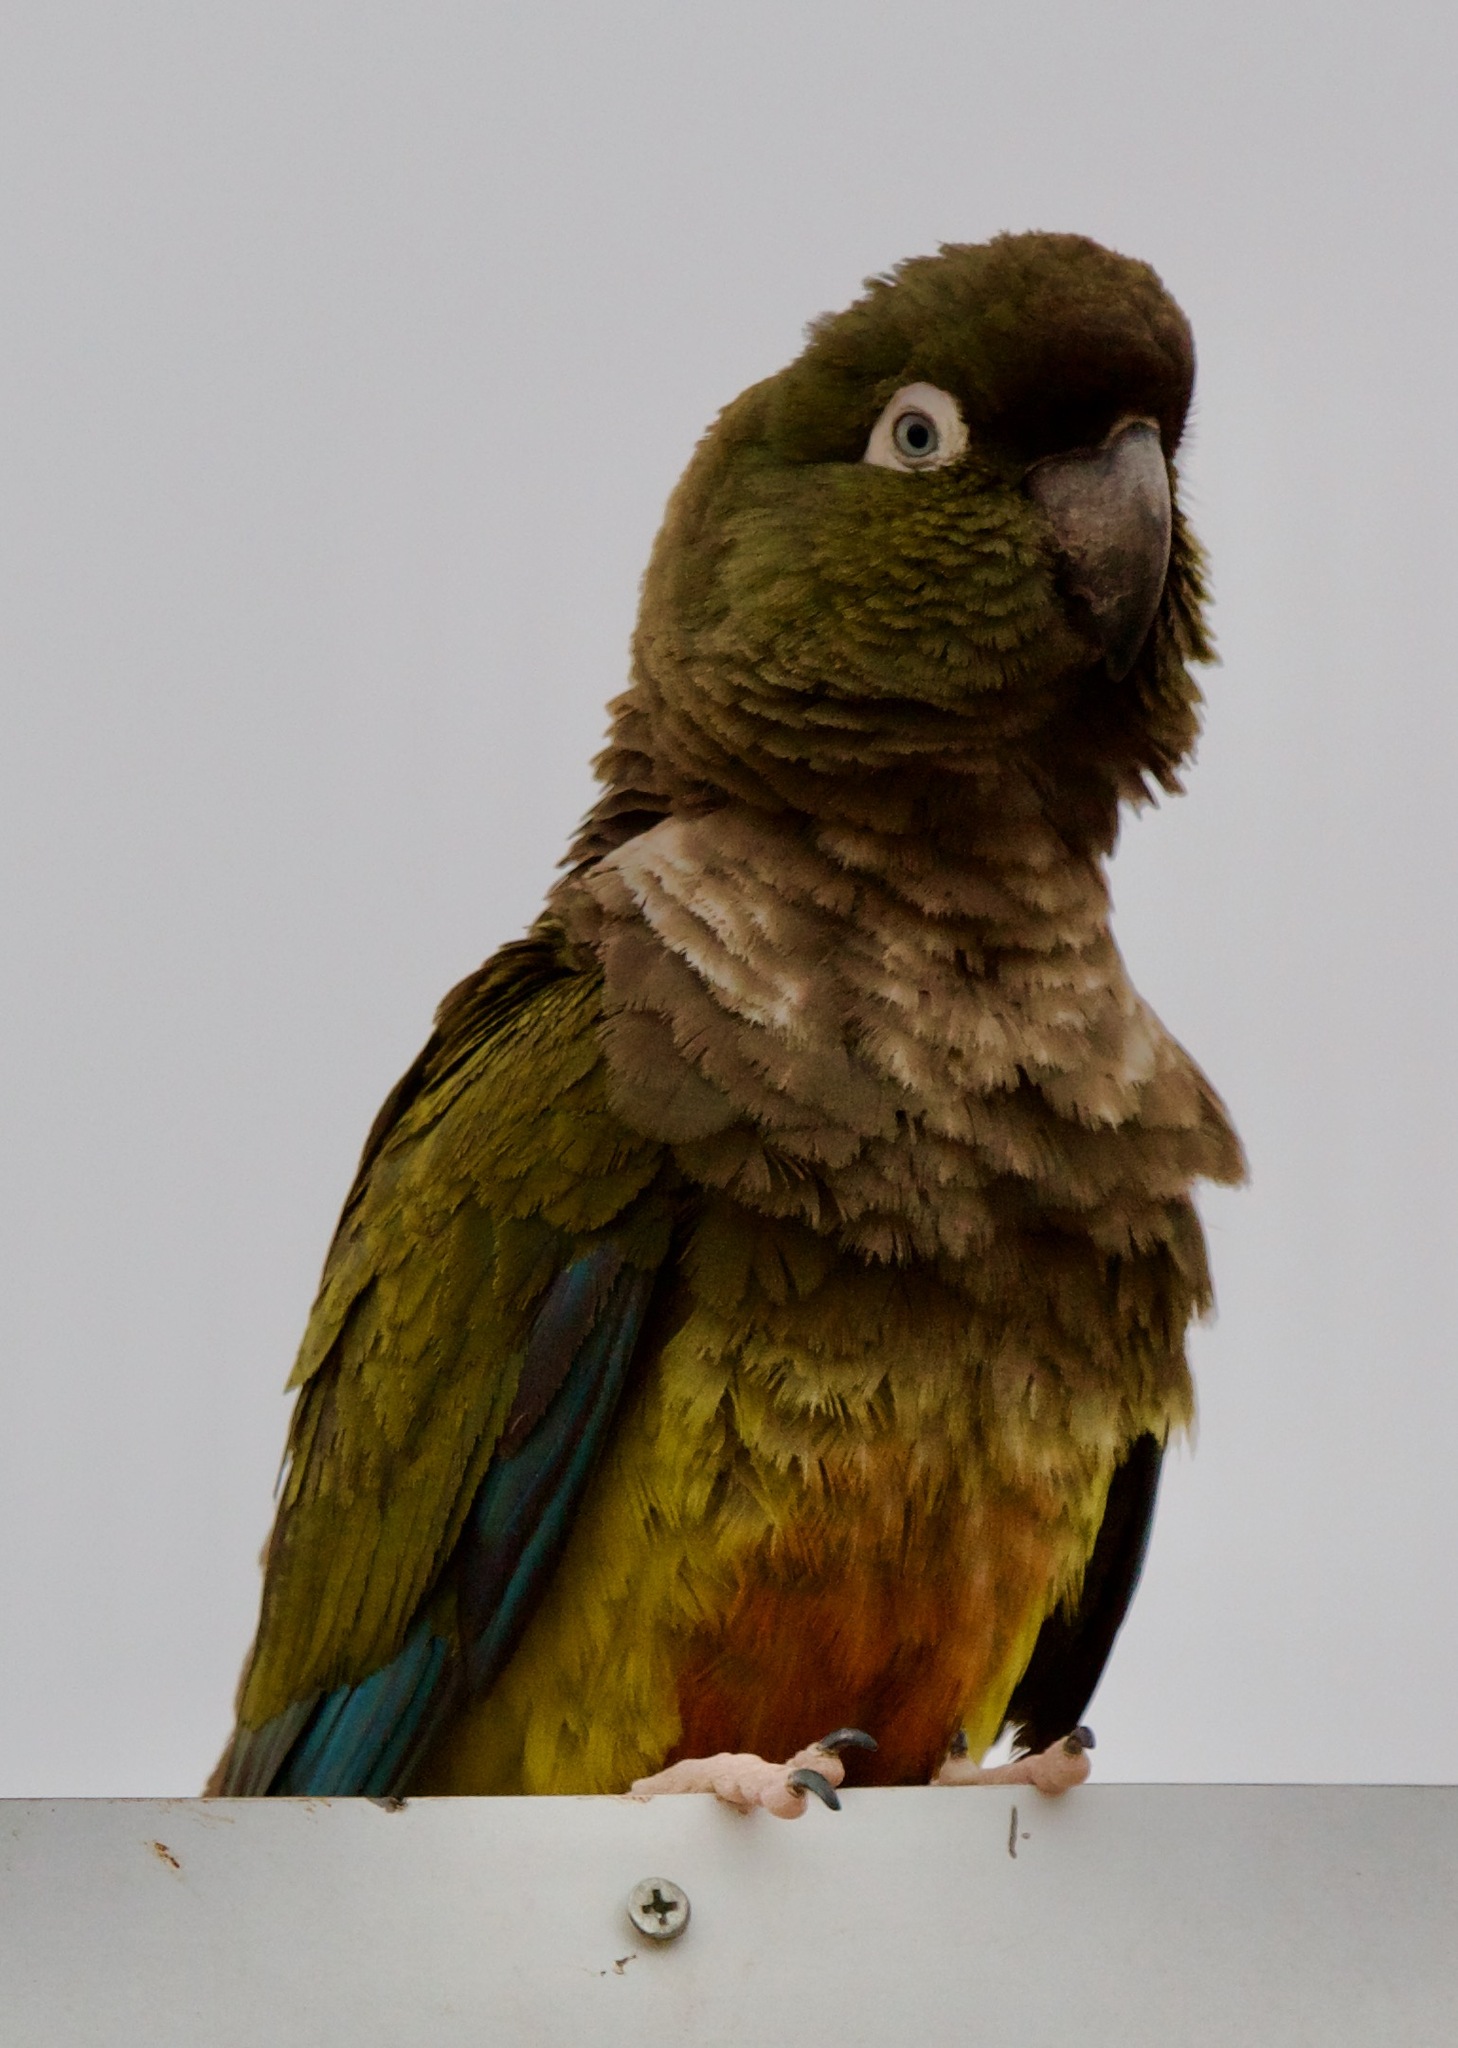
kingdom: Animalia
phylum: Chordata
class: Aves
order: Psittaciformes
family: Psittacidae
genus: Cyanoliseus
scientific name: Cyanoliseus patagonus
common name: Burrowing parrot
